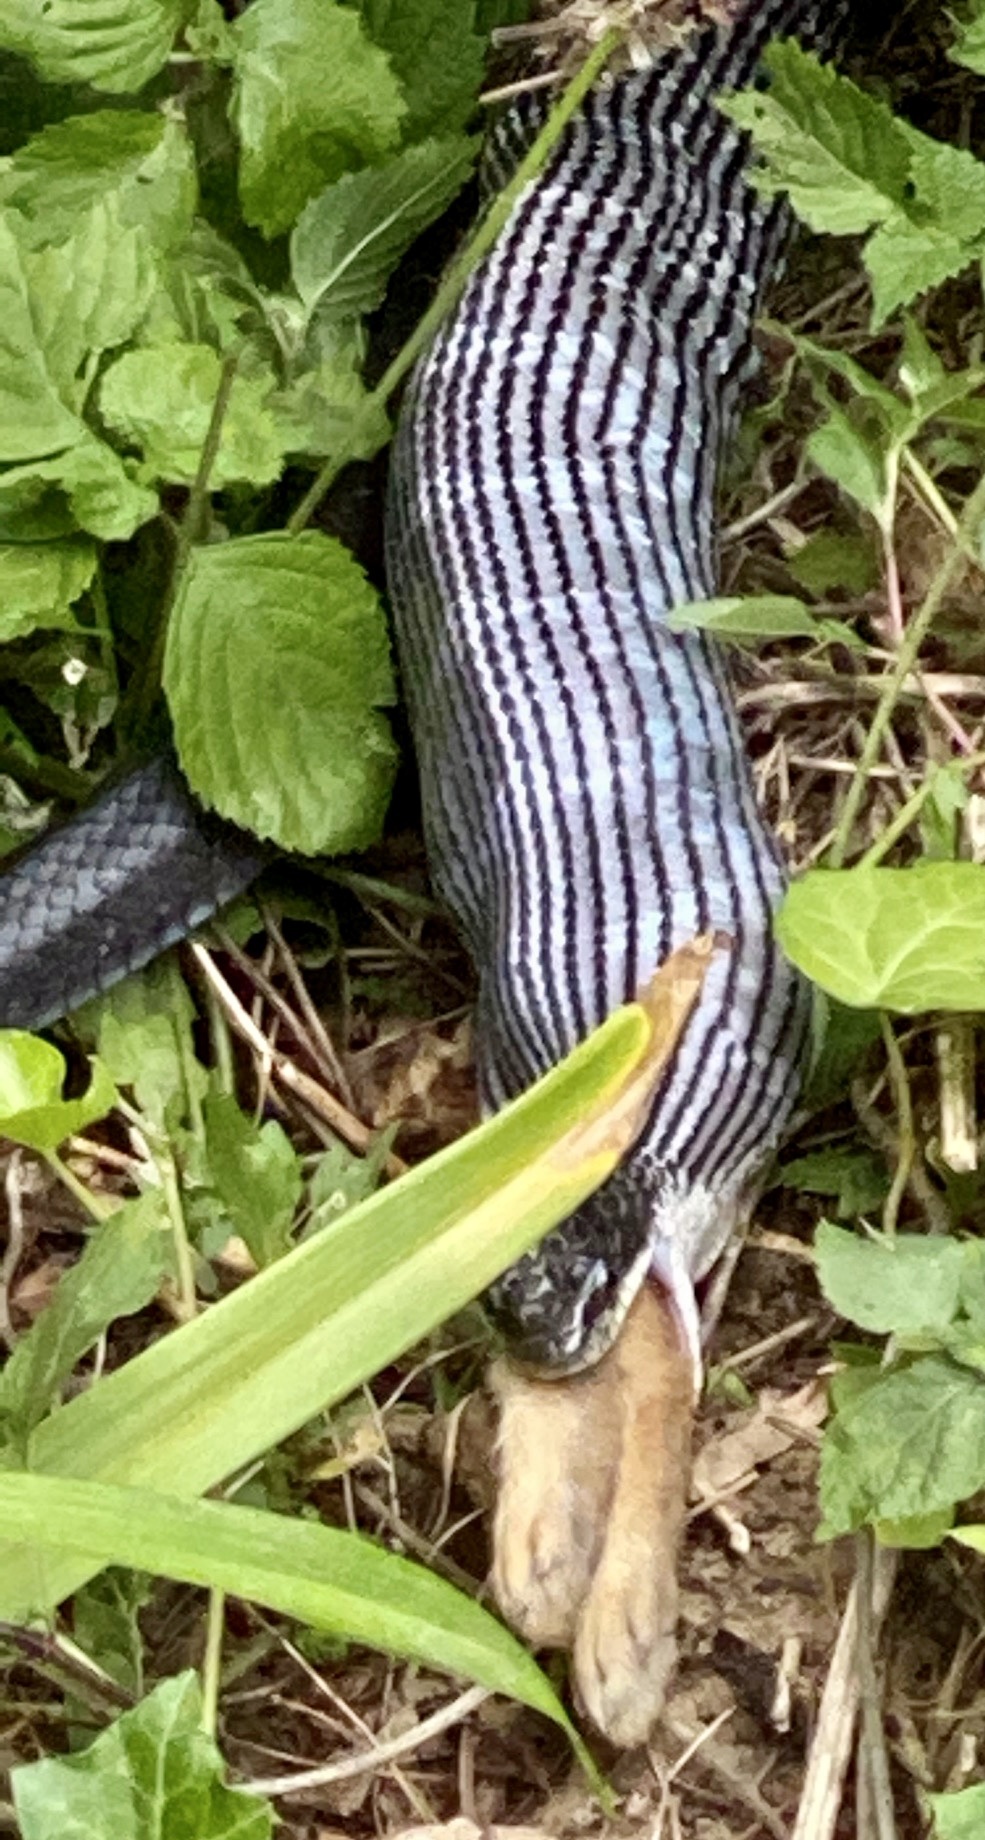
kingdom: Animalia
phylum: Chordata
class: Squamata
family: Colubridae
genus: Pantherophis
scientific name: Pantherophis
